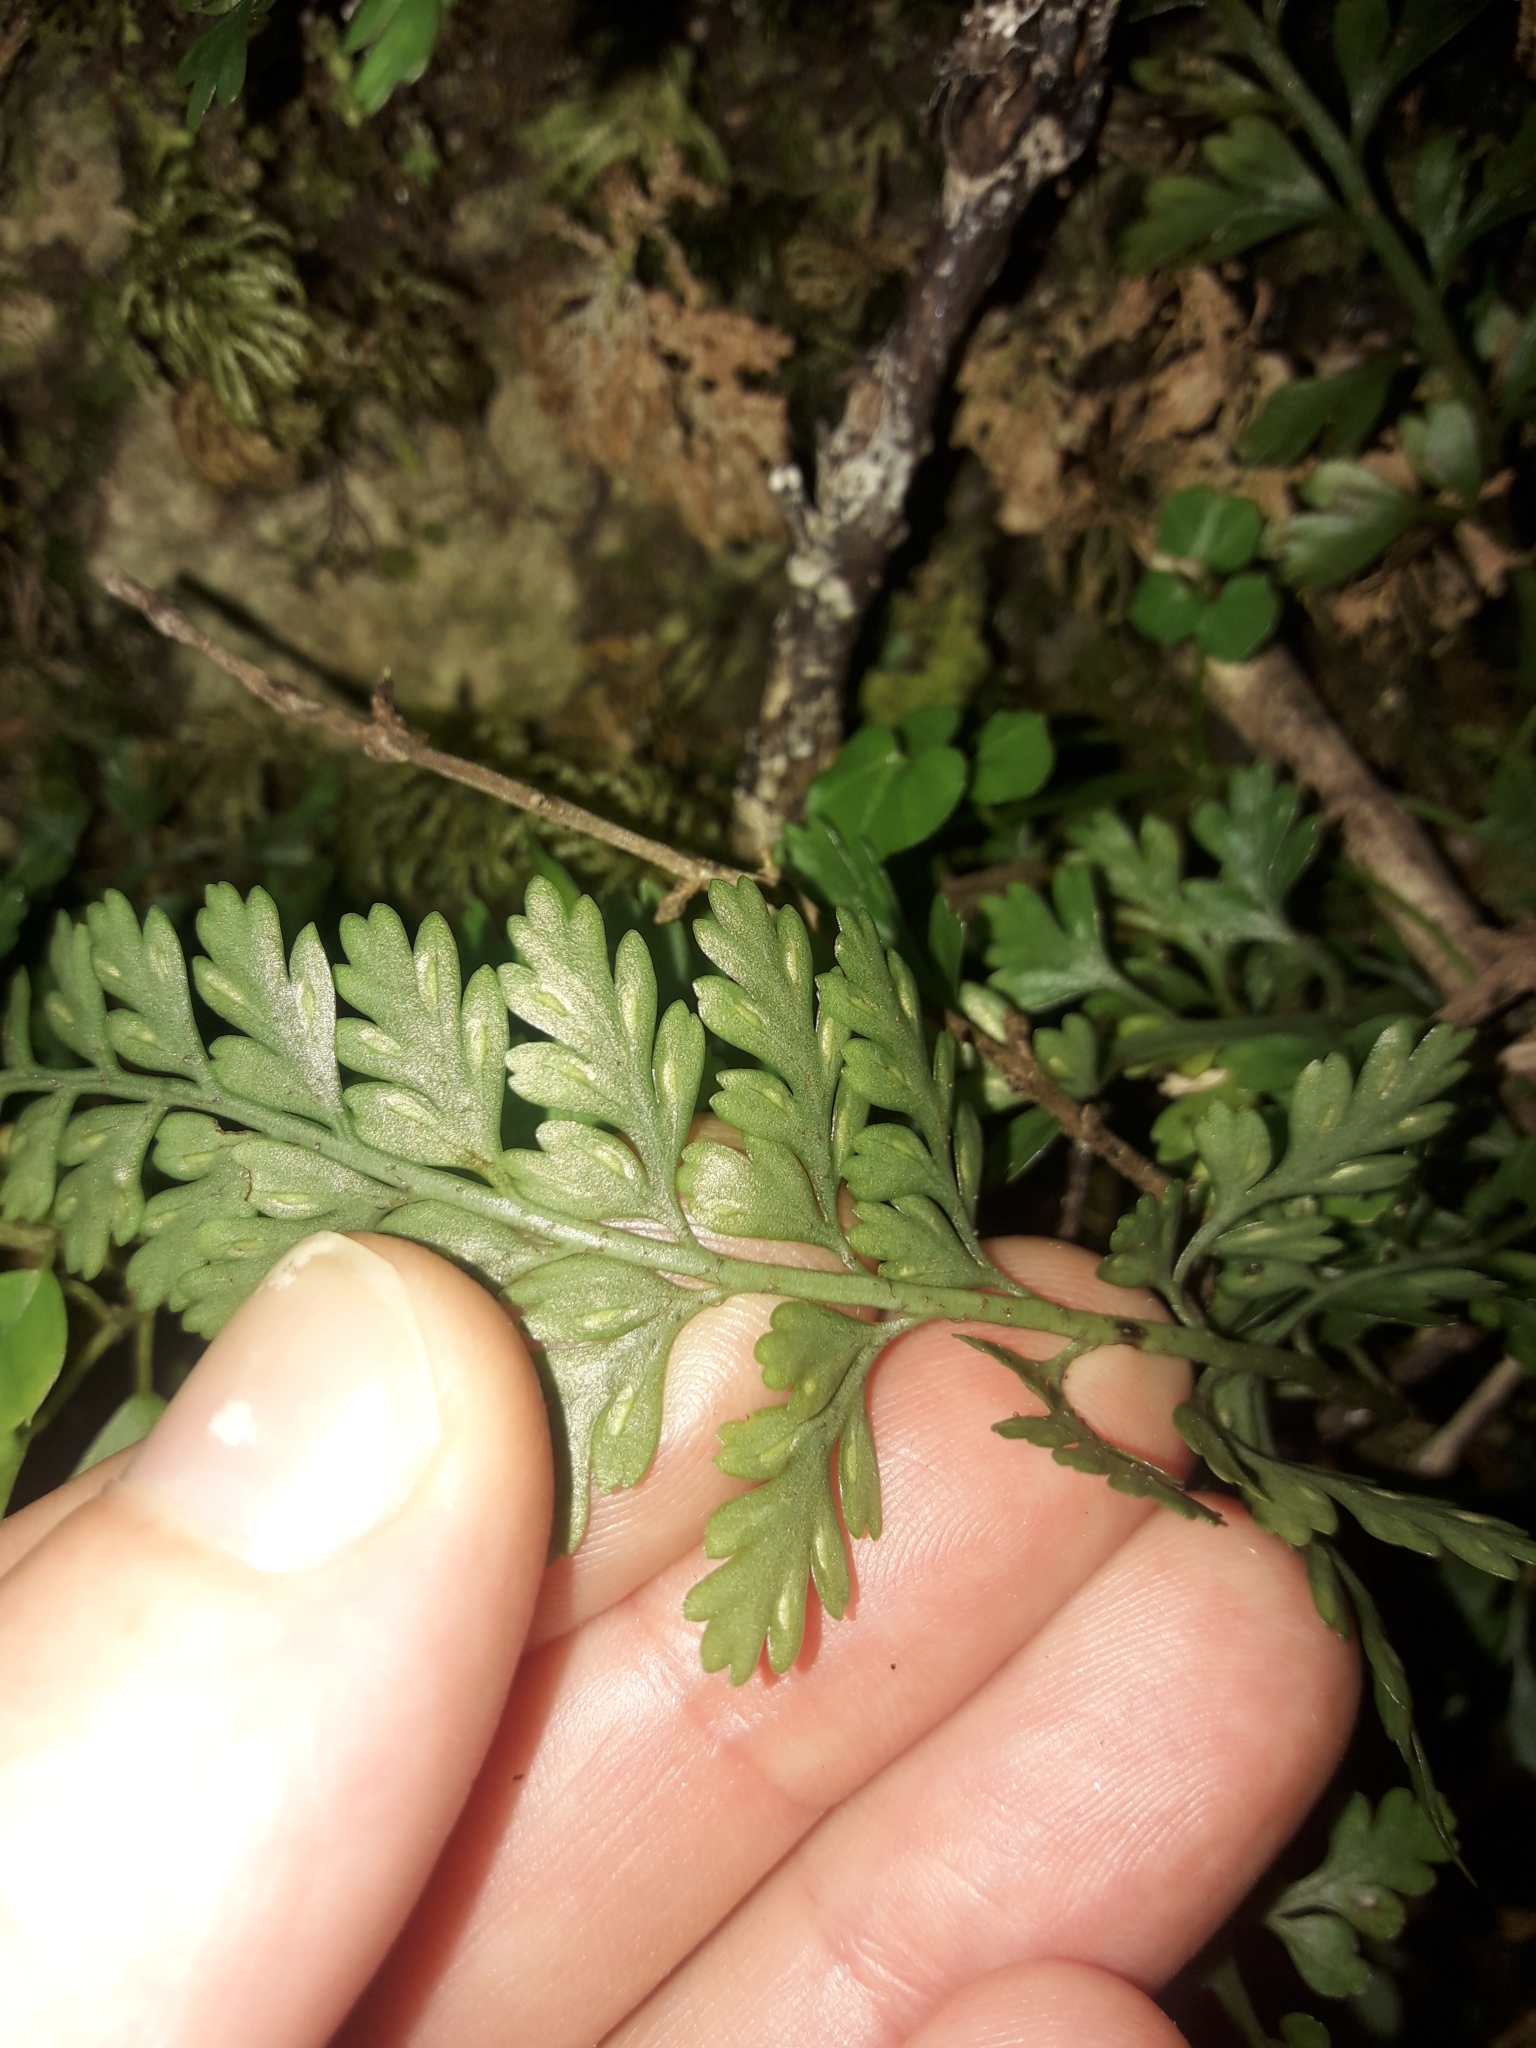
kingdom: Plantae
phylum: Tracheophyta
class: Polypodiopsida
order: Polypodiales
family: Aspleniaceae
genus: Asplenium
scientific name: Asplenium cimmeriorum
